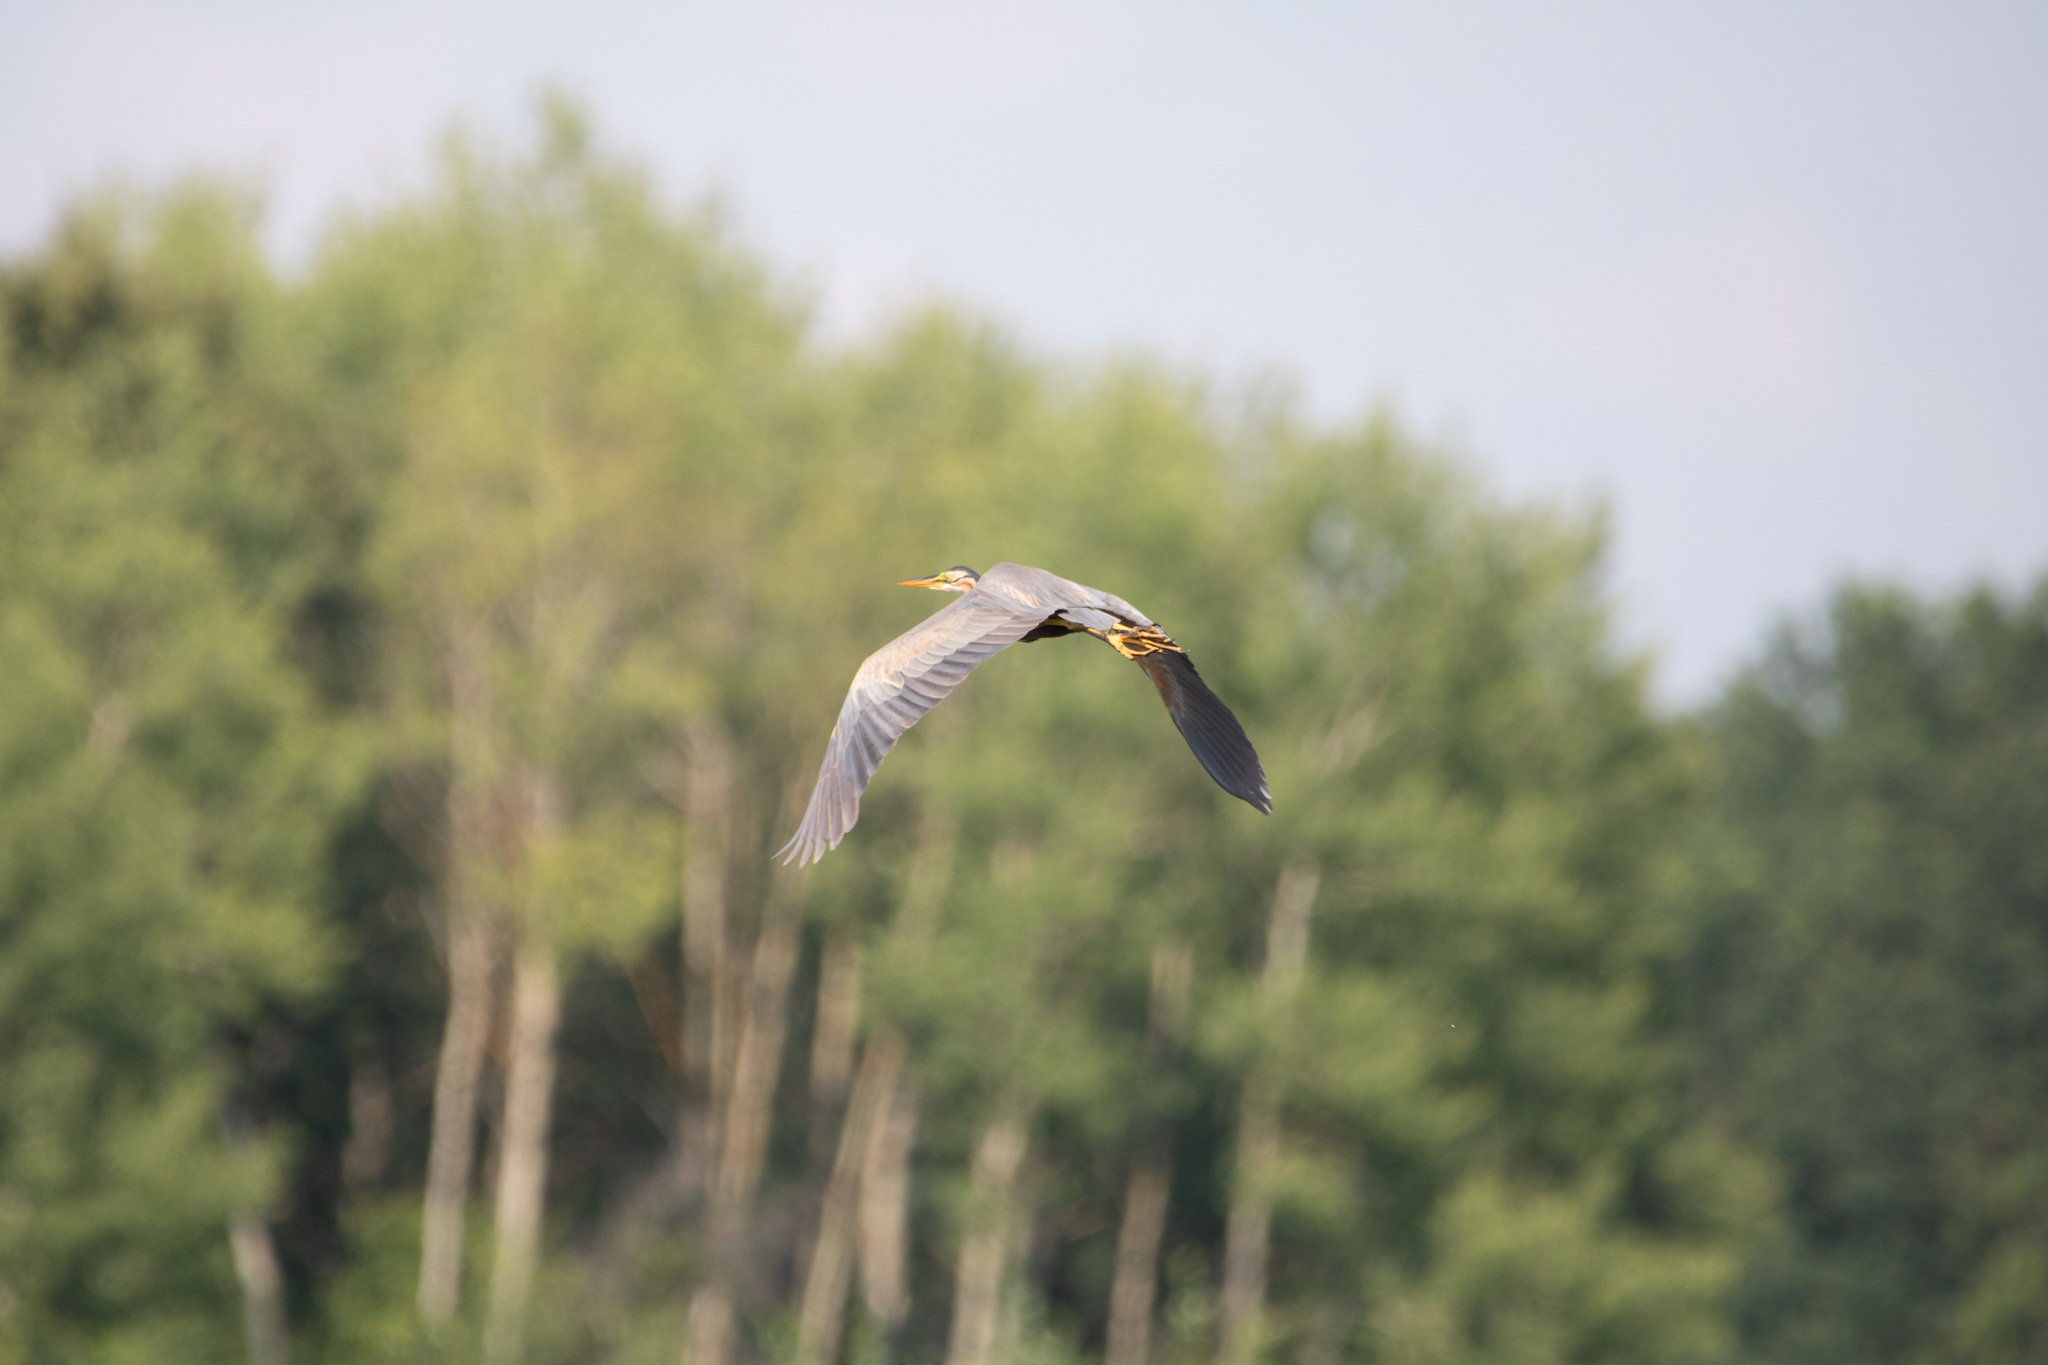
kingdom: Animalia
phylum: Chordata
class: Aves
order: Pelecaniformes
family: Ardeidae
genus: Ardea
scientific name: Ardea purpurea
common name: Purple heron
